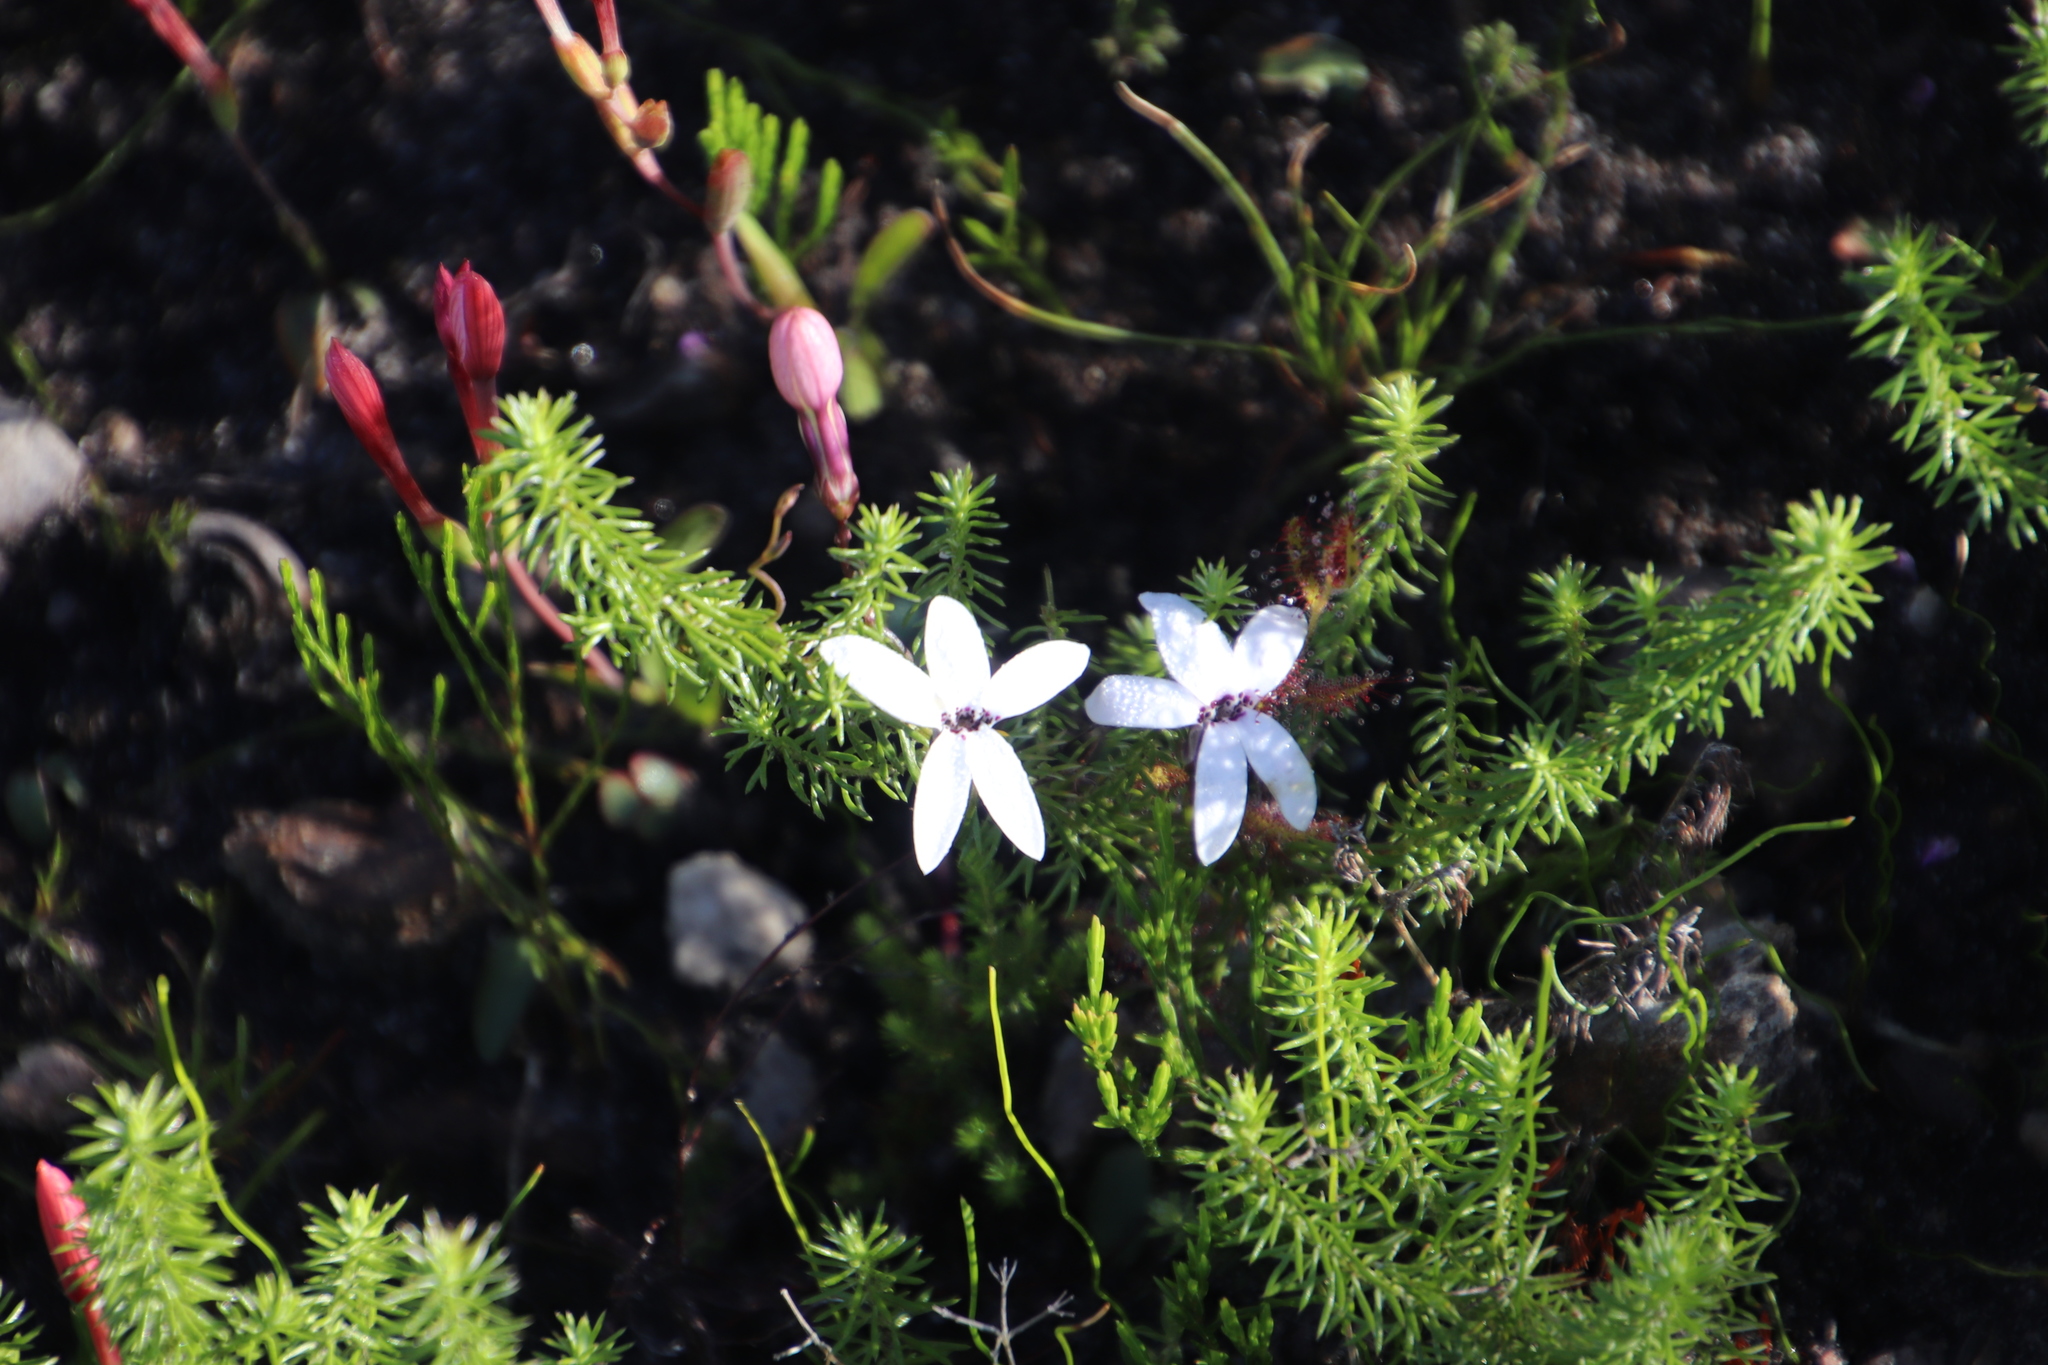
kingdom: Plantae
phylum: Tracheophyta
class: Magnoliopsida
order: Asterales
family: Campanulaceae
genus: Cyphia
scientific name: Cyphia volubilis
